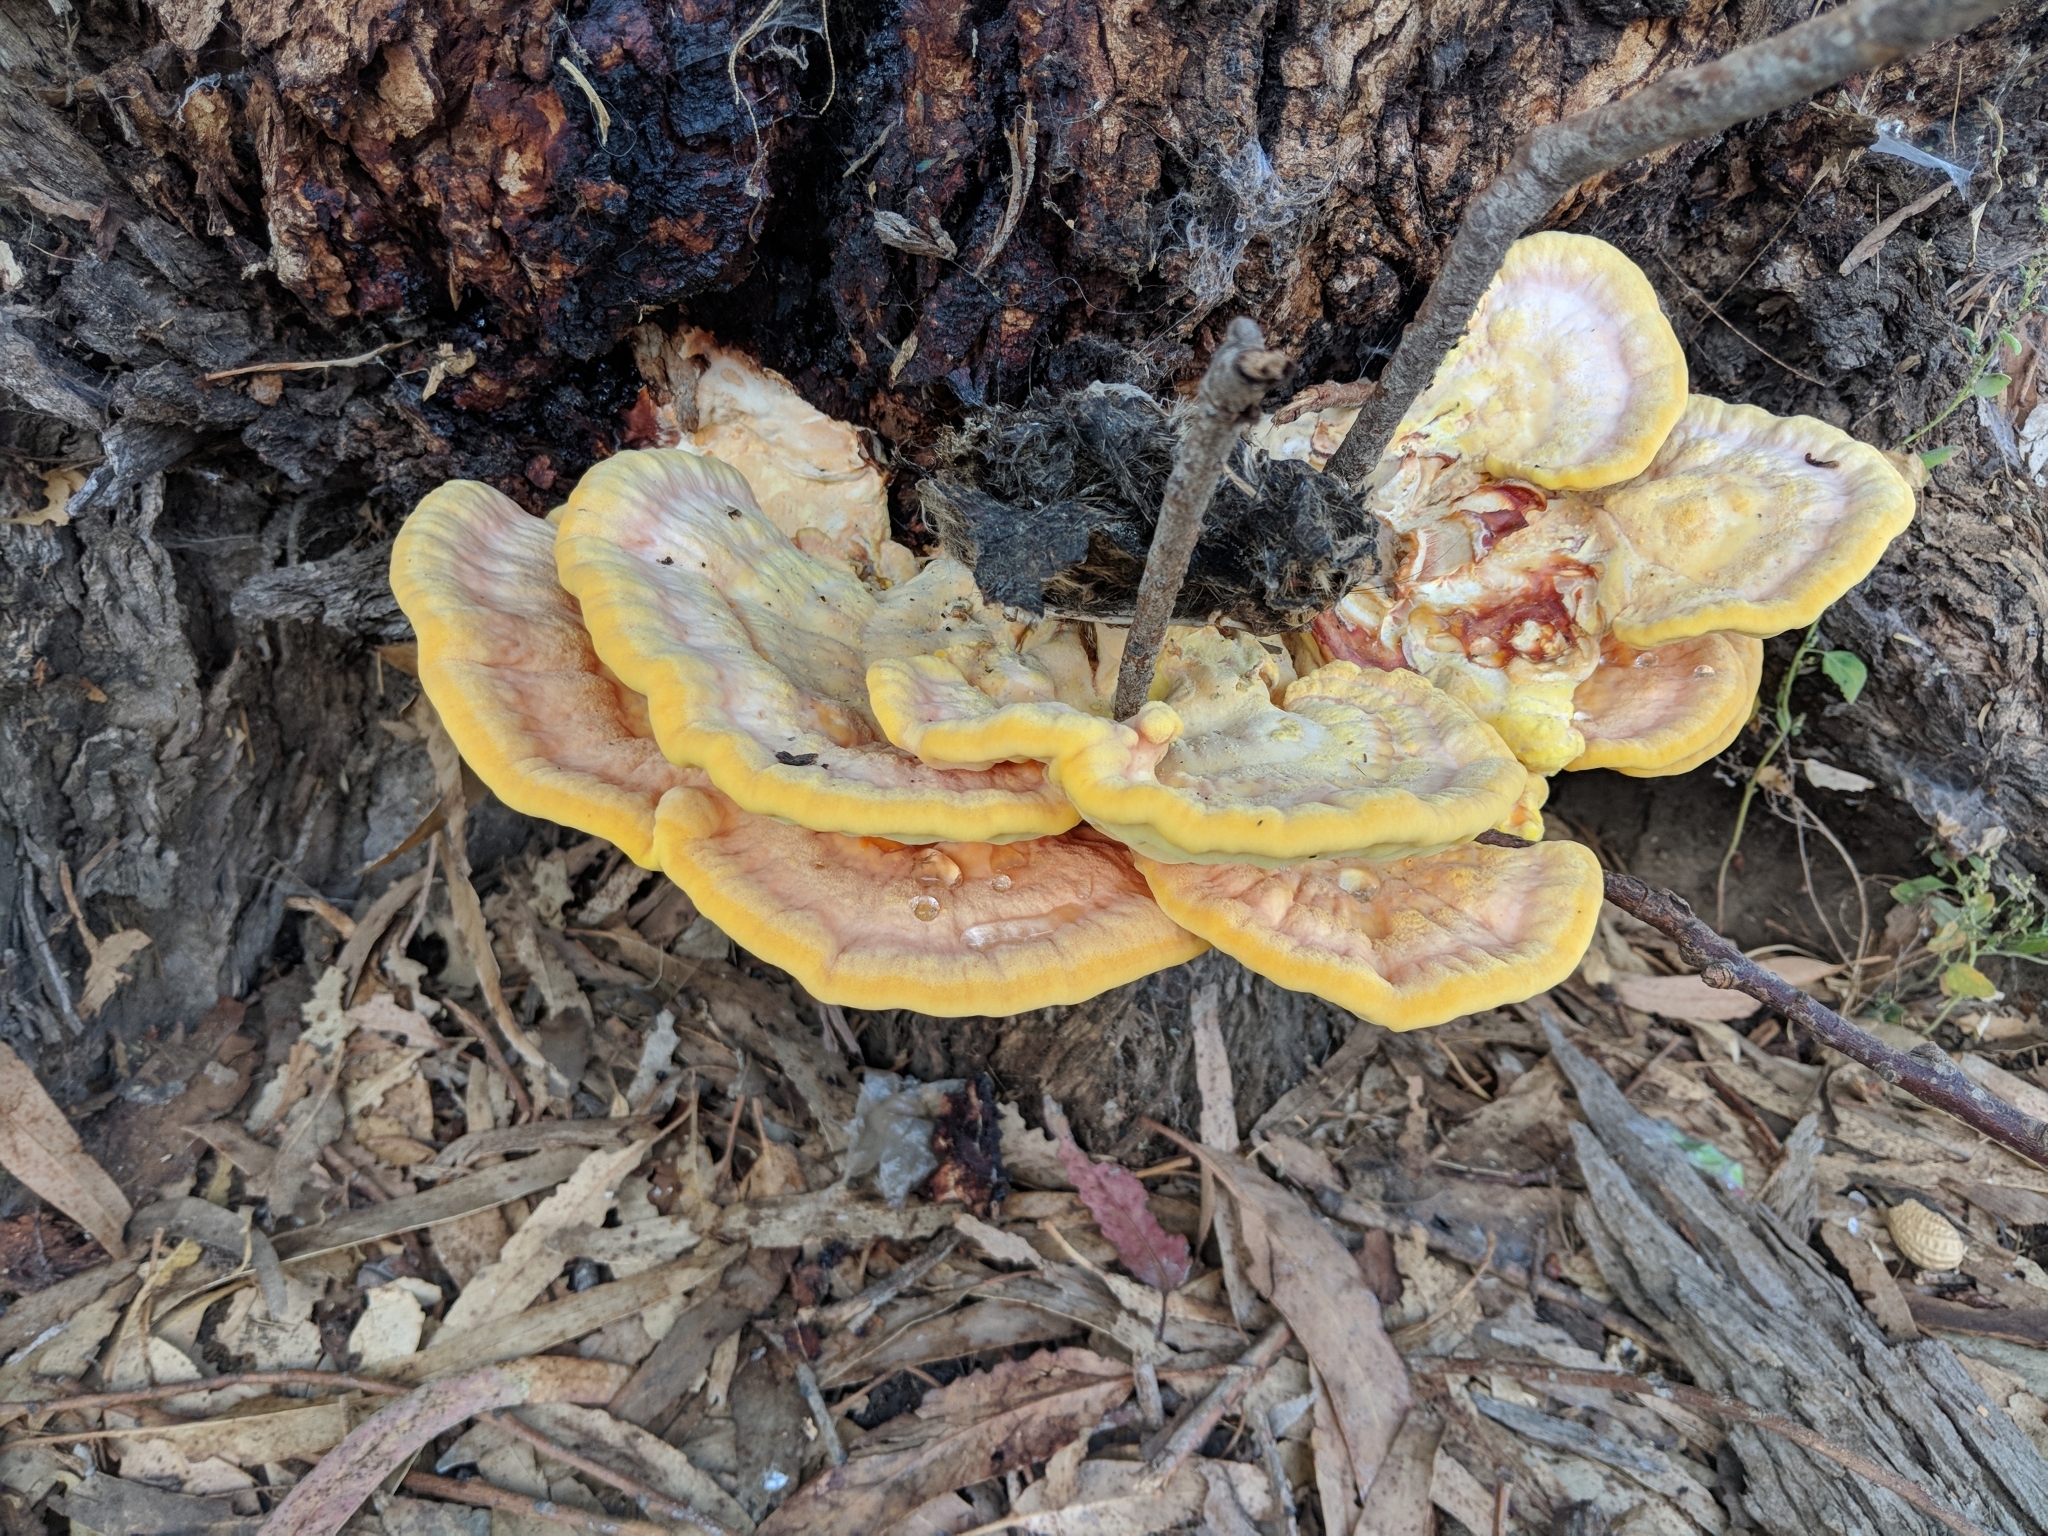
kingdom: Fungi
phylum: Basidiomycota
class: Agaricomycetes
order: Polyporales
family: Laetiporaceae
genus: Laetiporus
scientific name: Laetiporus gilbertsonii
